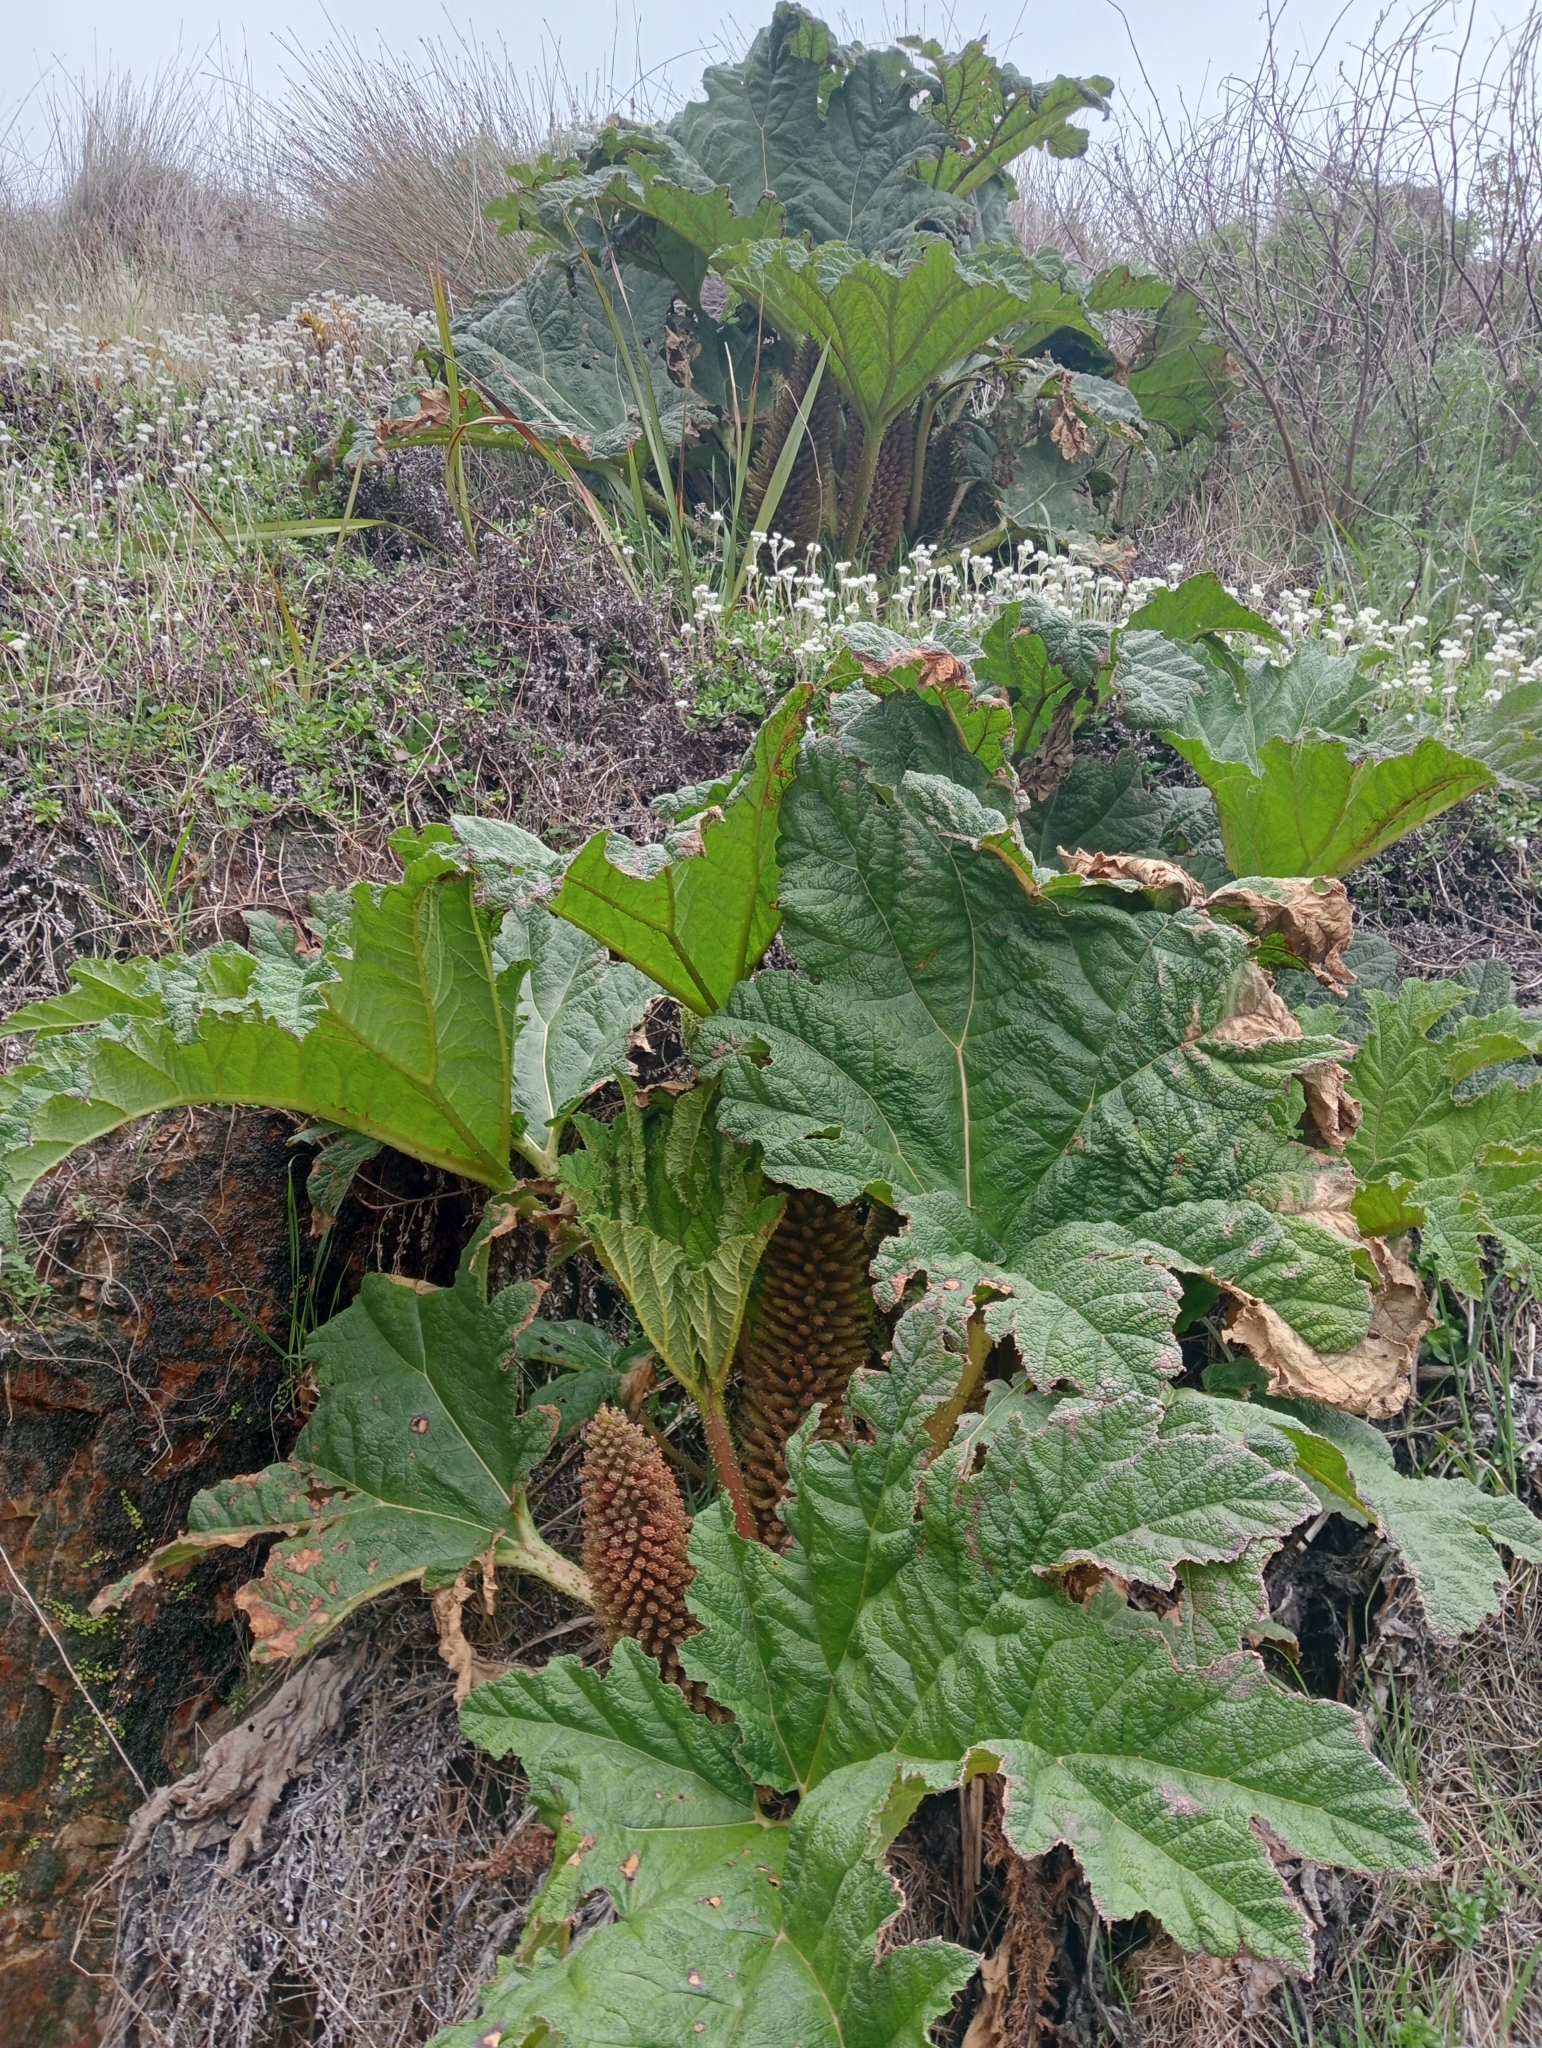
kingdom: Plantae
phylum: Tracheophyta
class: Magnoliopsida
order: Gunnerales
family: Gunneraceae
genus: Gunnera
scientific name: Gunnera tinctoria
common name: Giant-rhubarb
